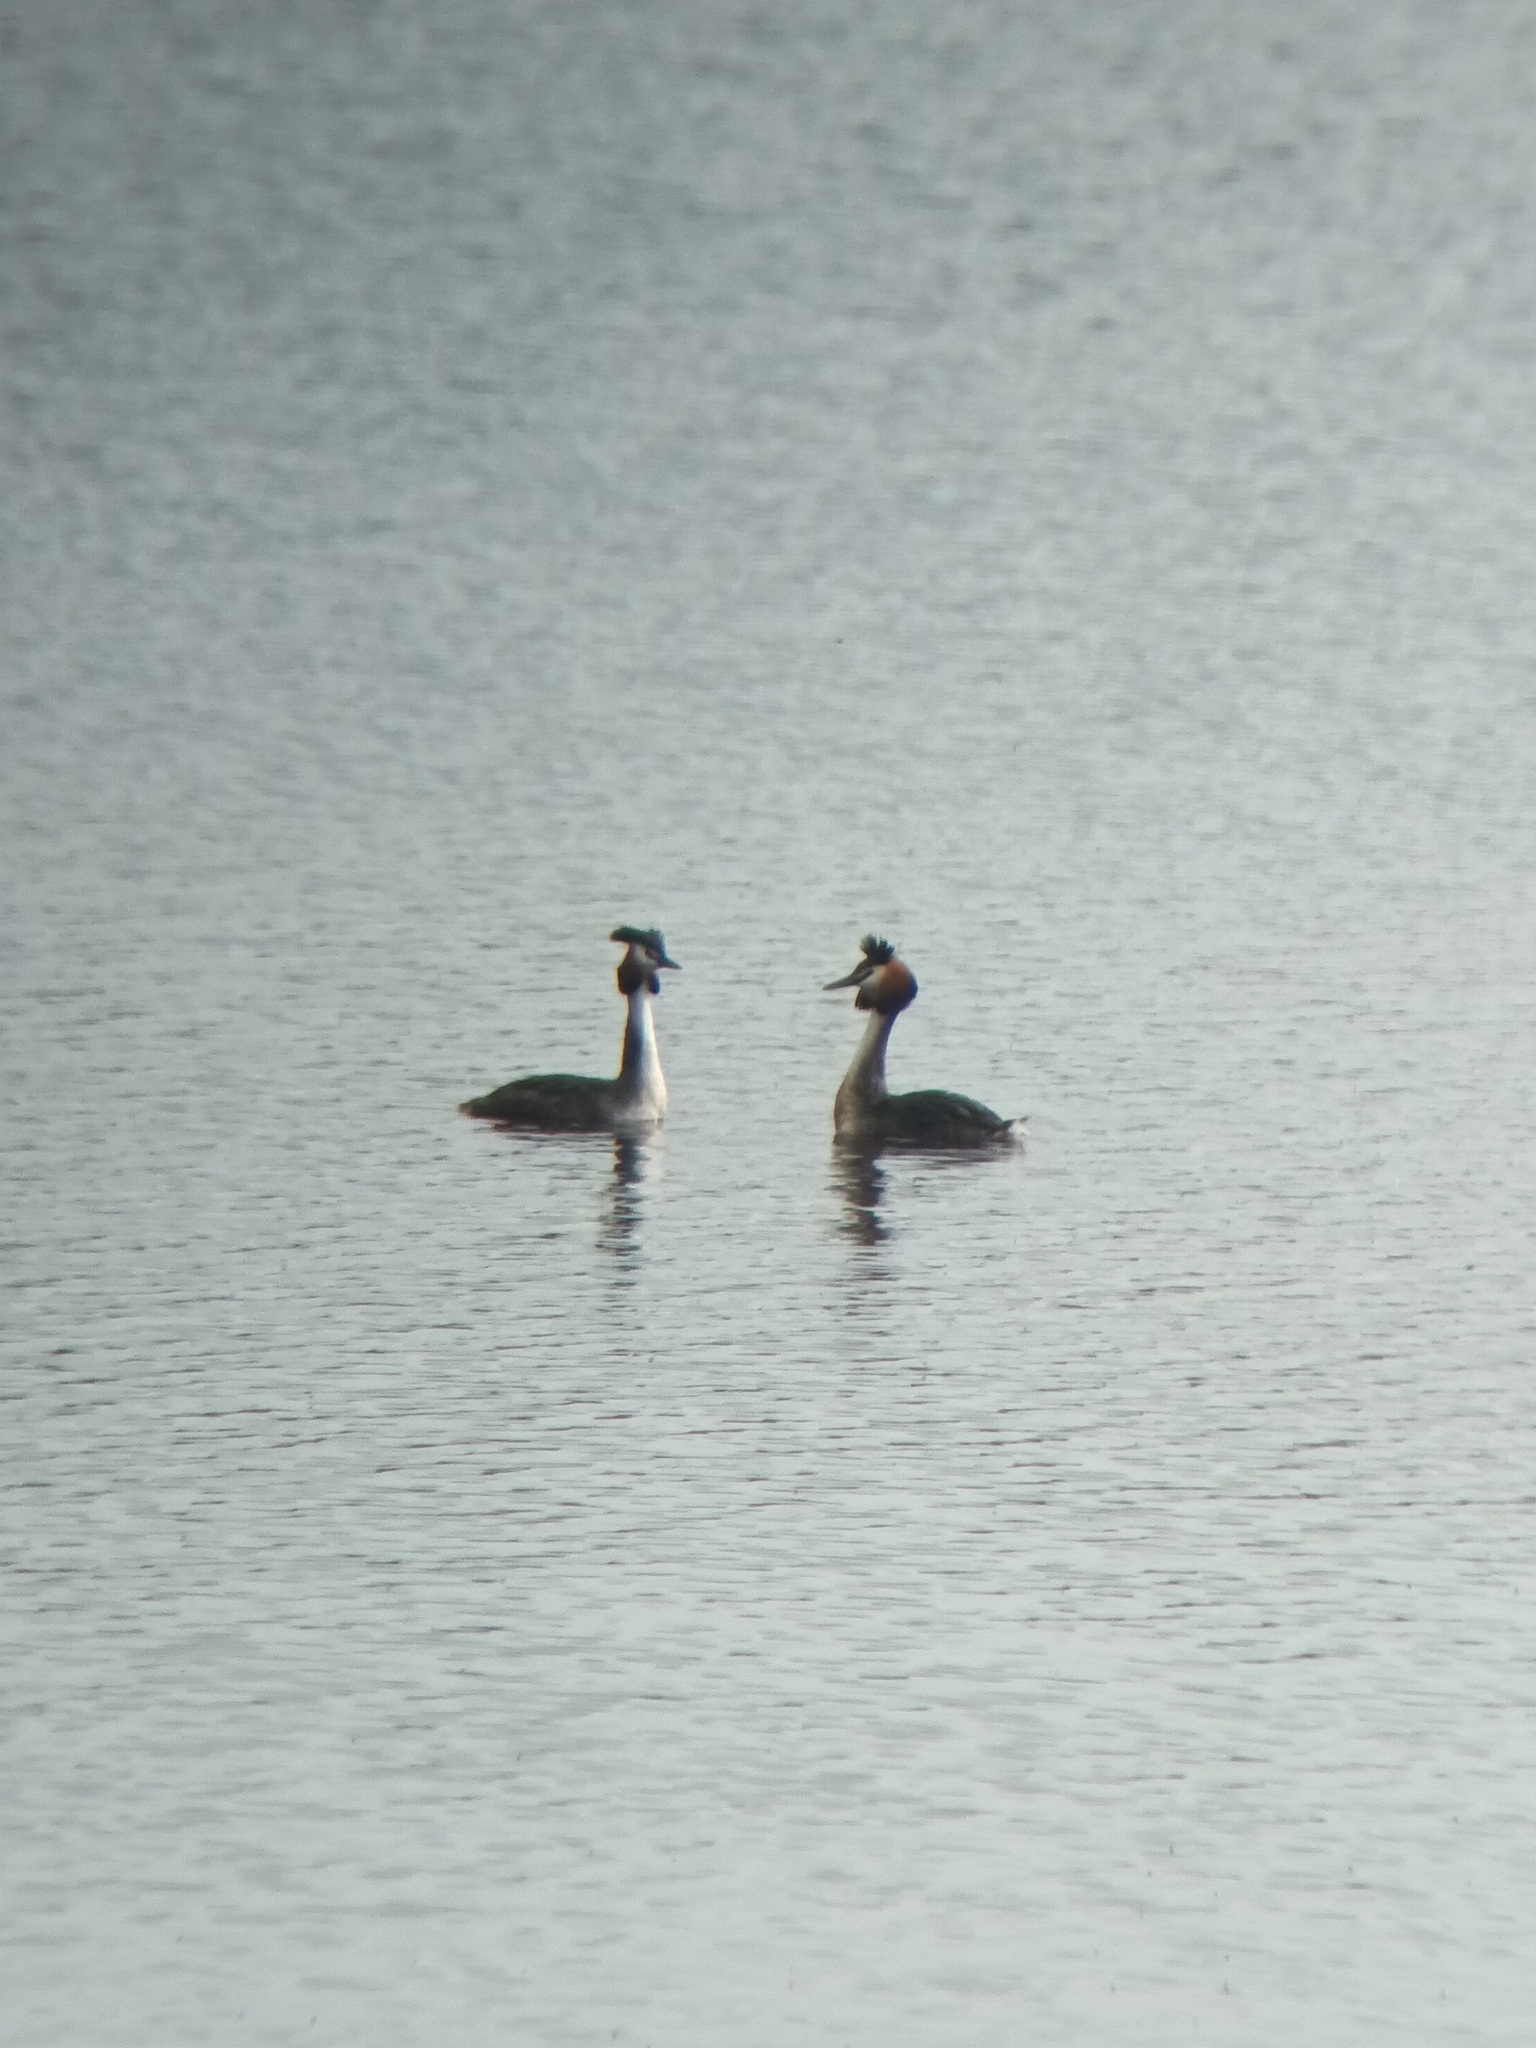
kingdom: Animalia
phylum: Chordata
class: Aves
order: Podicipediformes
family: Podicipedidae
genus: Podiceps
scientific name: Podiceps cristatus
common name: Great crested grebe
